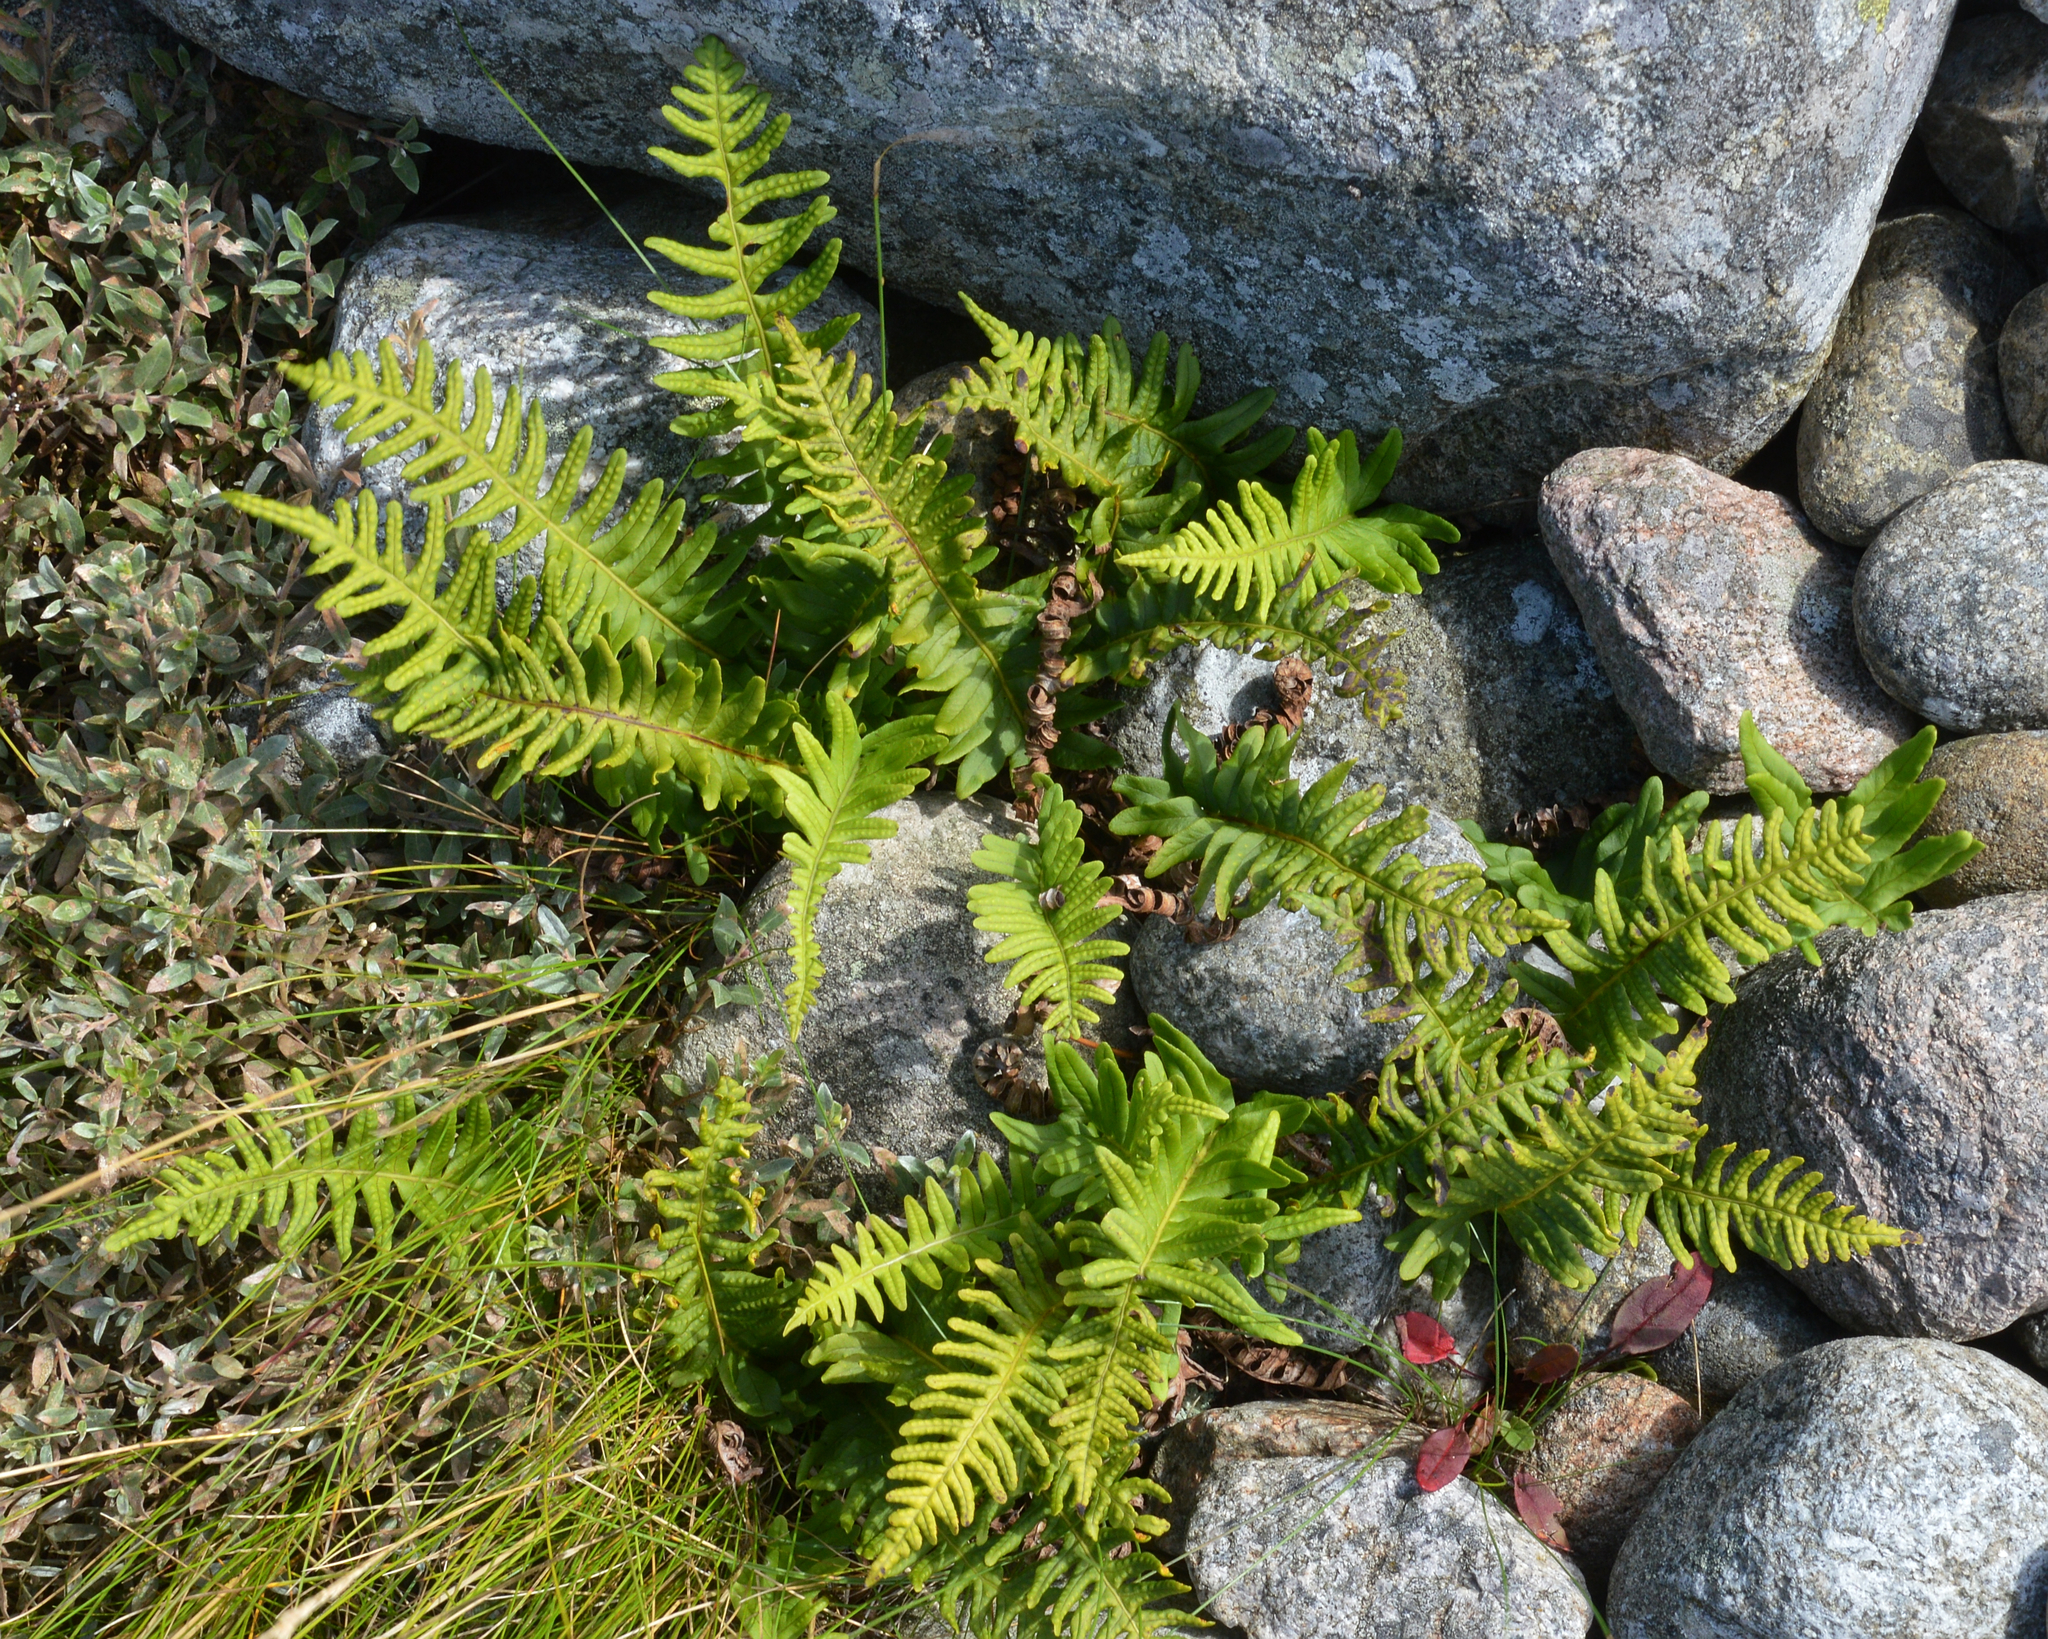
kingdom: Plantae
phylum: Tracheophyta
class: Polypodiopsida
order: Polypodiales
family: Polypodiaceae
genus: Polypodium
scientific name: Polypodium vulgare
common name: Common polypody
